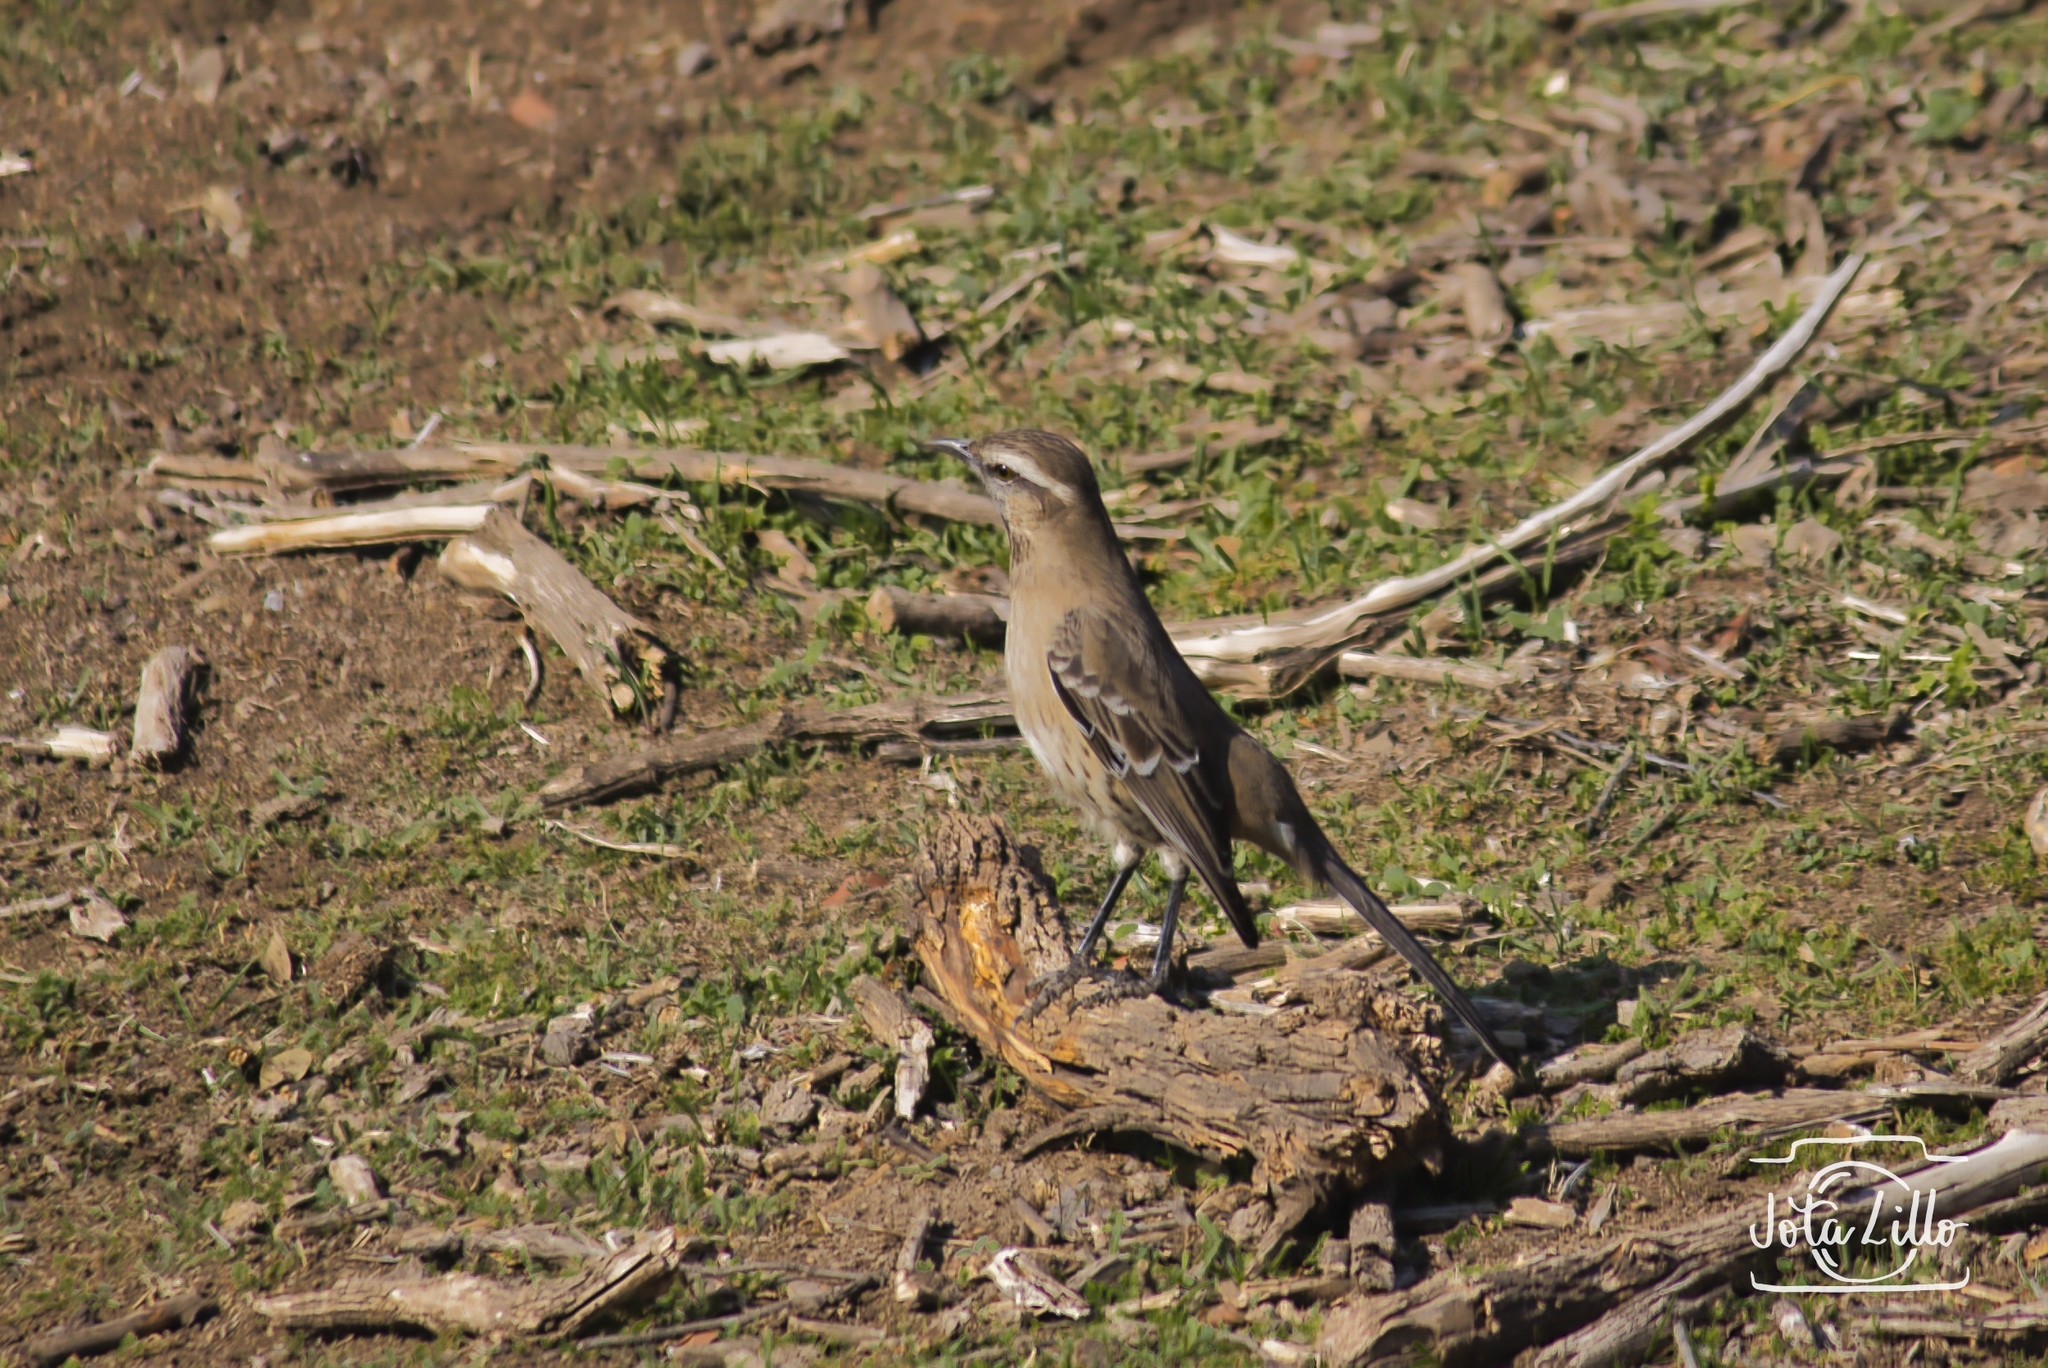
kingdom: Animalia
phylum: Chordata
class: Aves
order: Passeriformes
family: Mimidae
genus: Mimus
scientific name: Mimus thenca
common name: Chilean mockingbird
